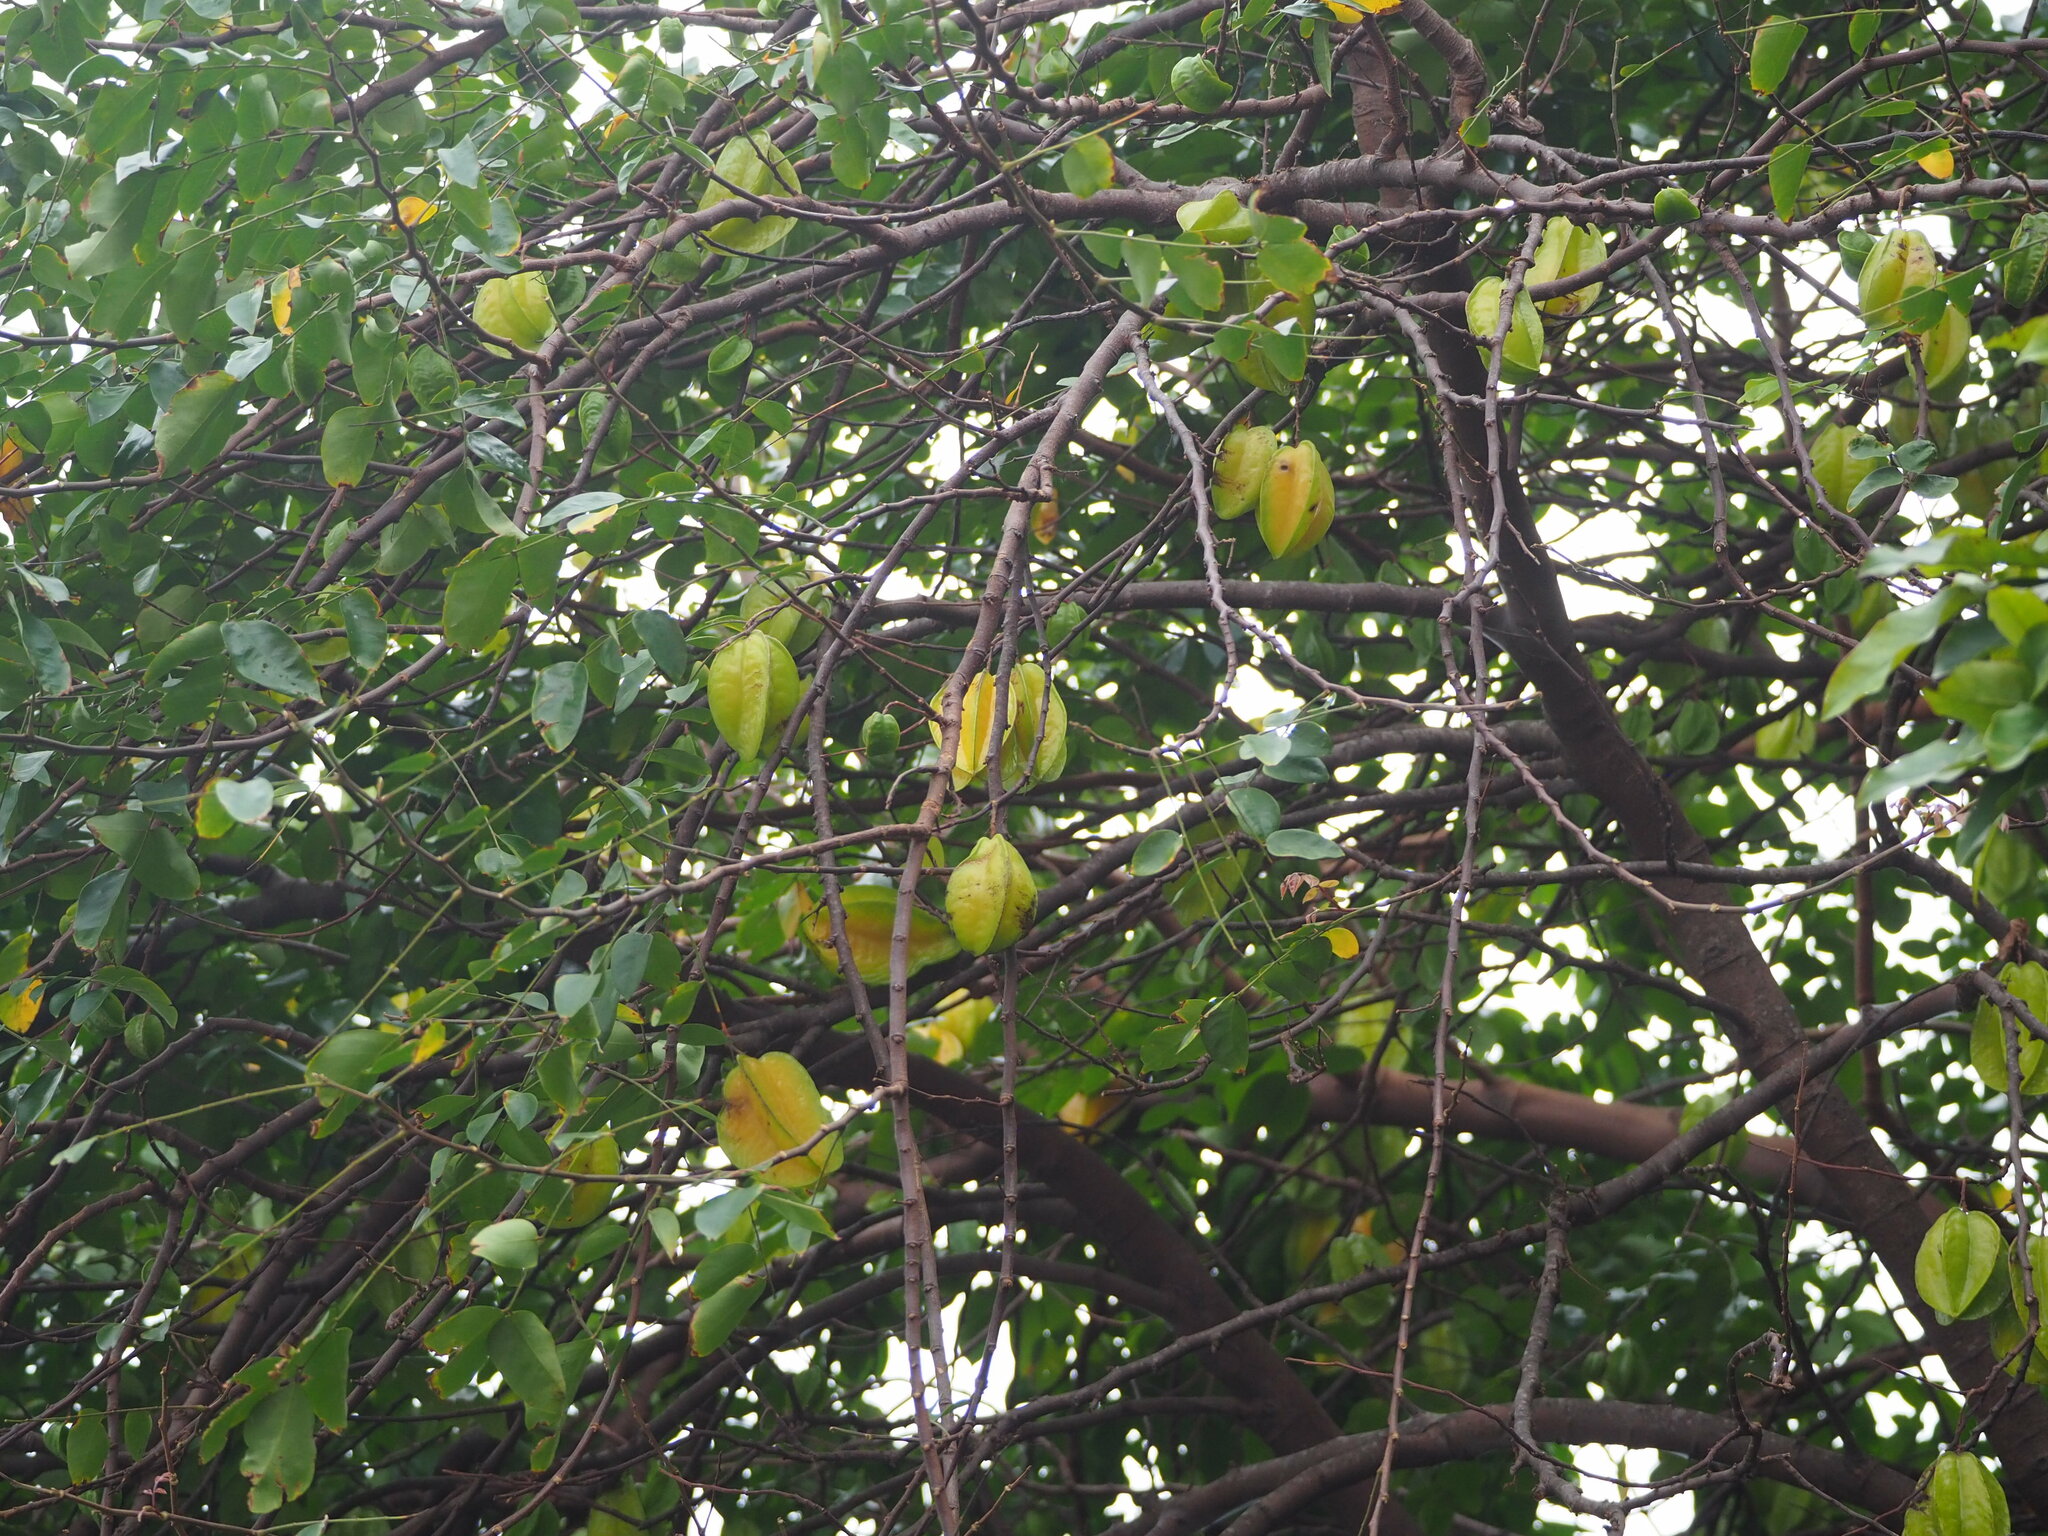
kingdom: Plantae
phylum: Tracheophyta
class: Magnoliopsida
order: Oxalidales
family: Oxalidaceae
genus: Averrhoa
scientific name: Averrhoa carambola
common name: Blimbing
